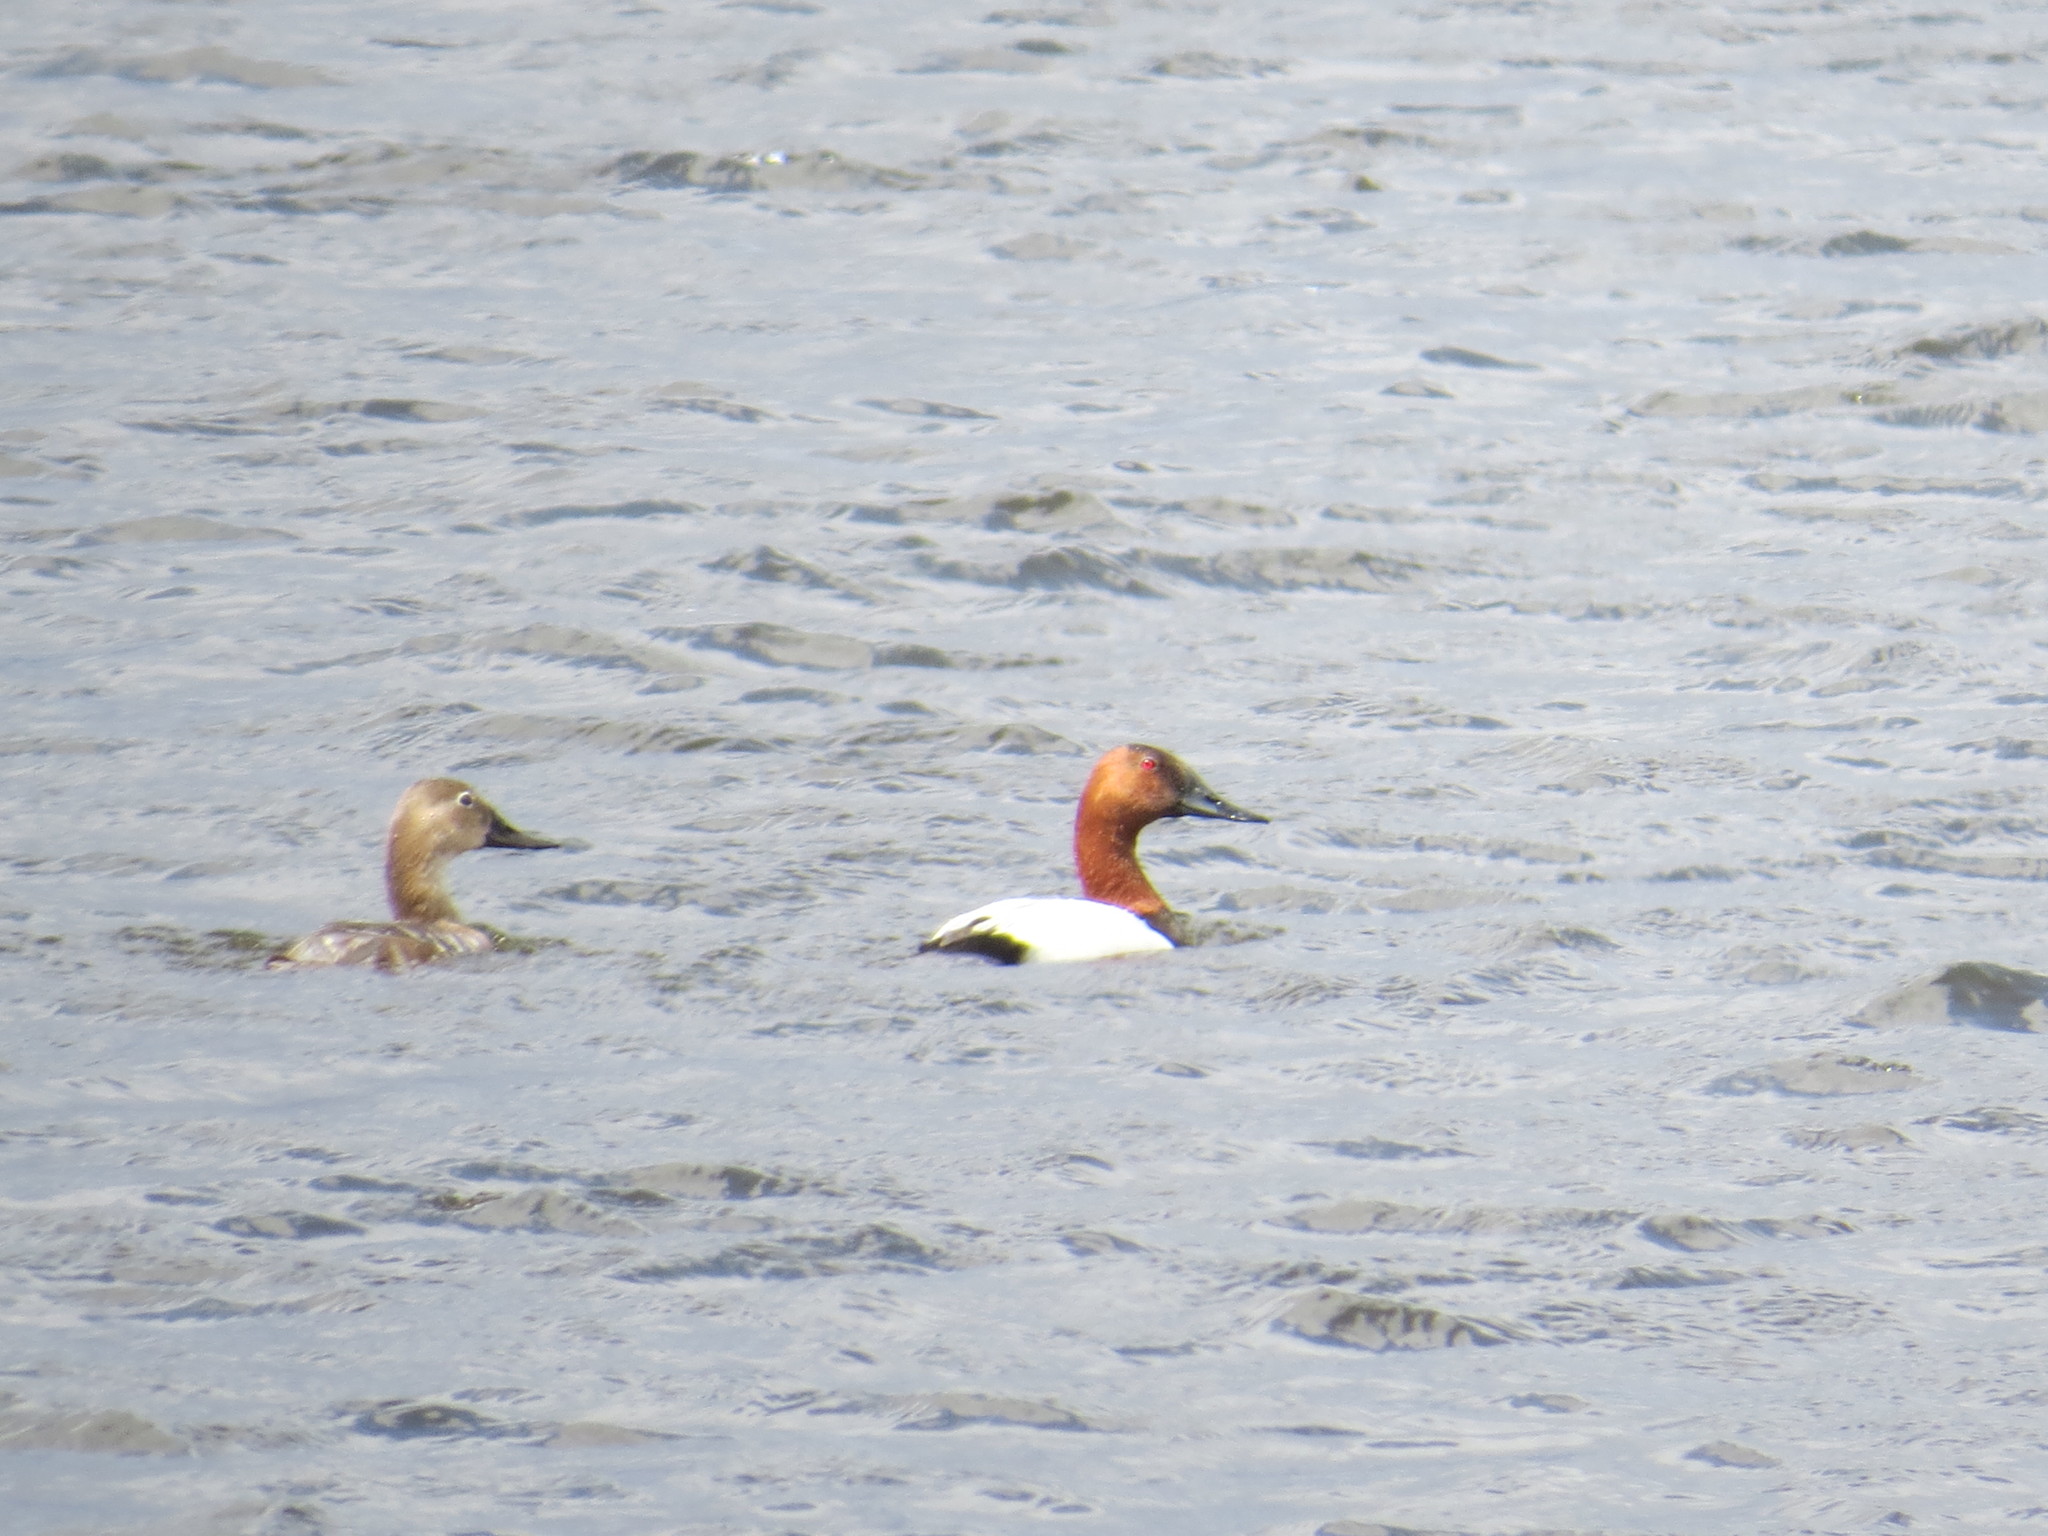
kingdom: Animalia
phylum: Chordata
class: Aves
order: Anseriformes
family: Anatidae
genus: Aythya
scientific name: Aythya valisineria
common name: Canvasback
